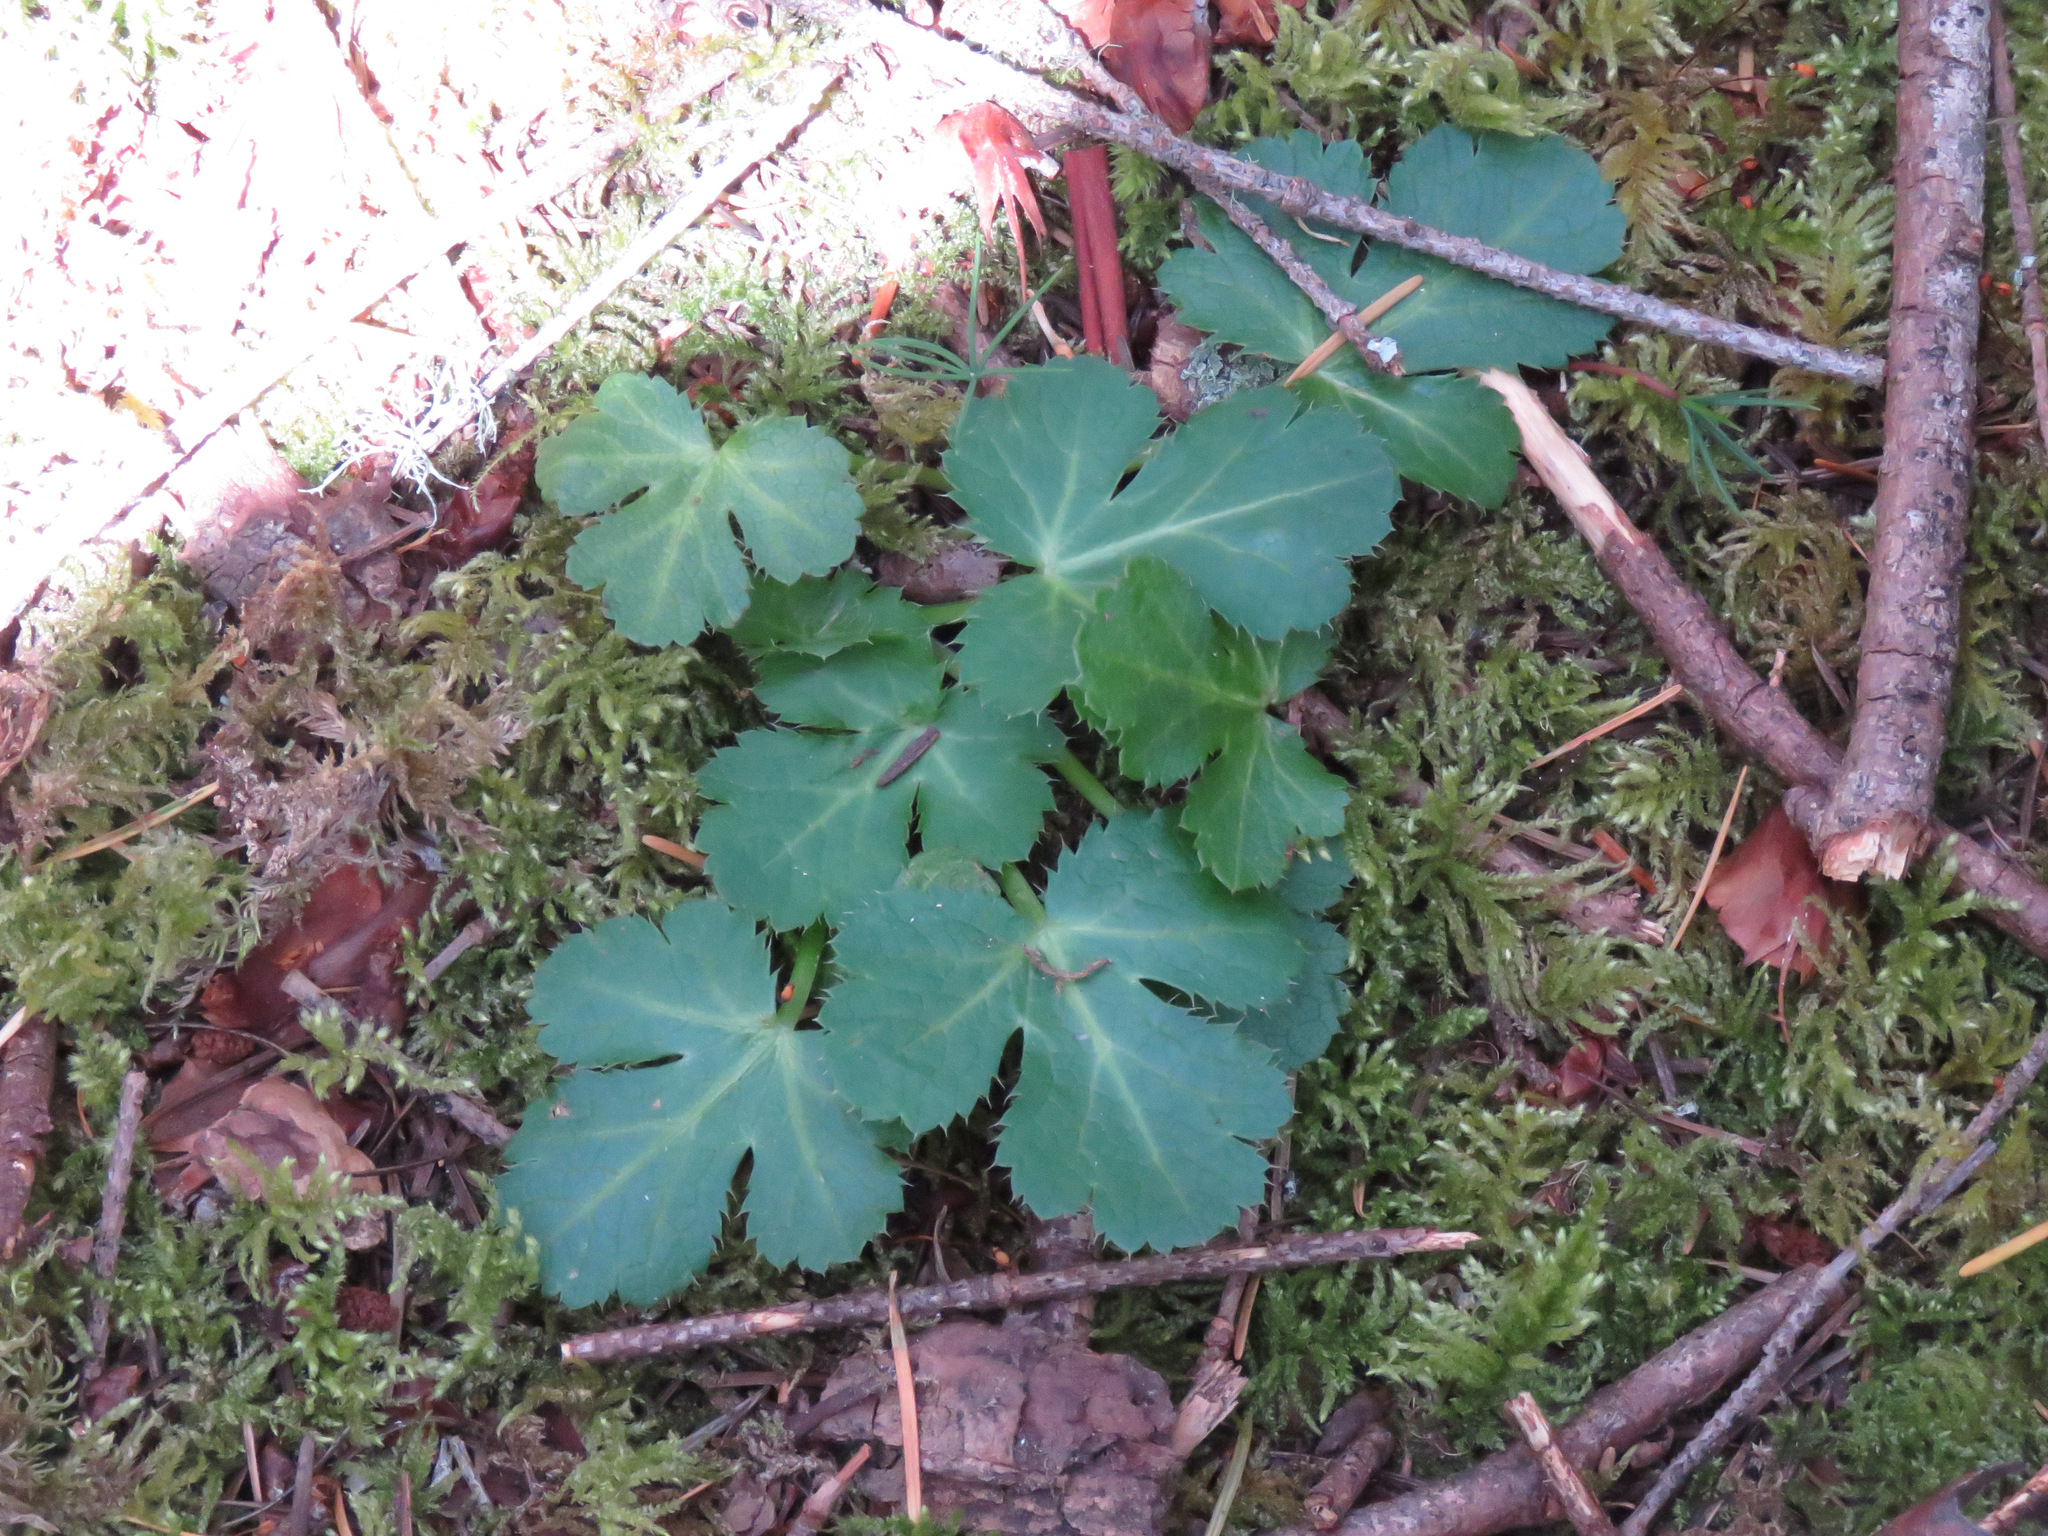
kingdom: Plantae
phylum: Tracheophyta
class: Magnoliopsida
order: Apiales
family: Apiaceae
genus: Sanicula
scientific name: Sanicula crassicaulis
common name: Western snakeroot
